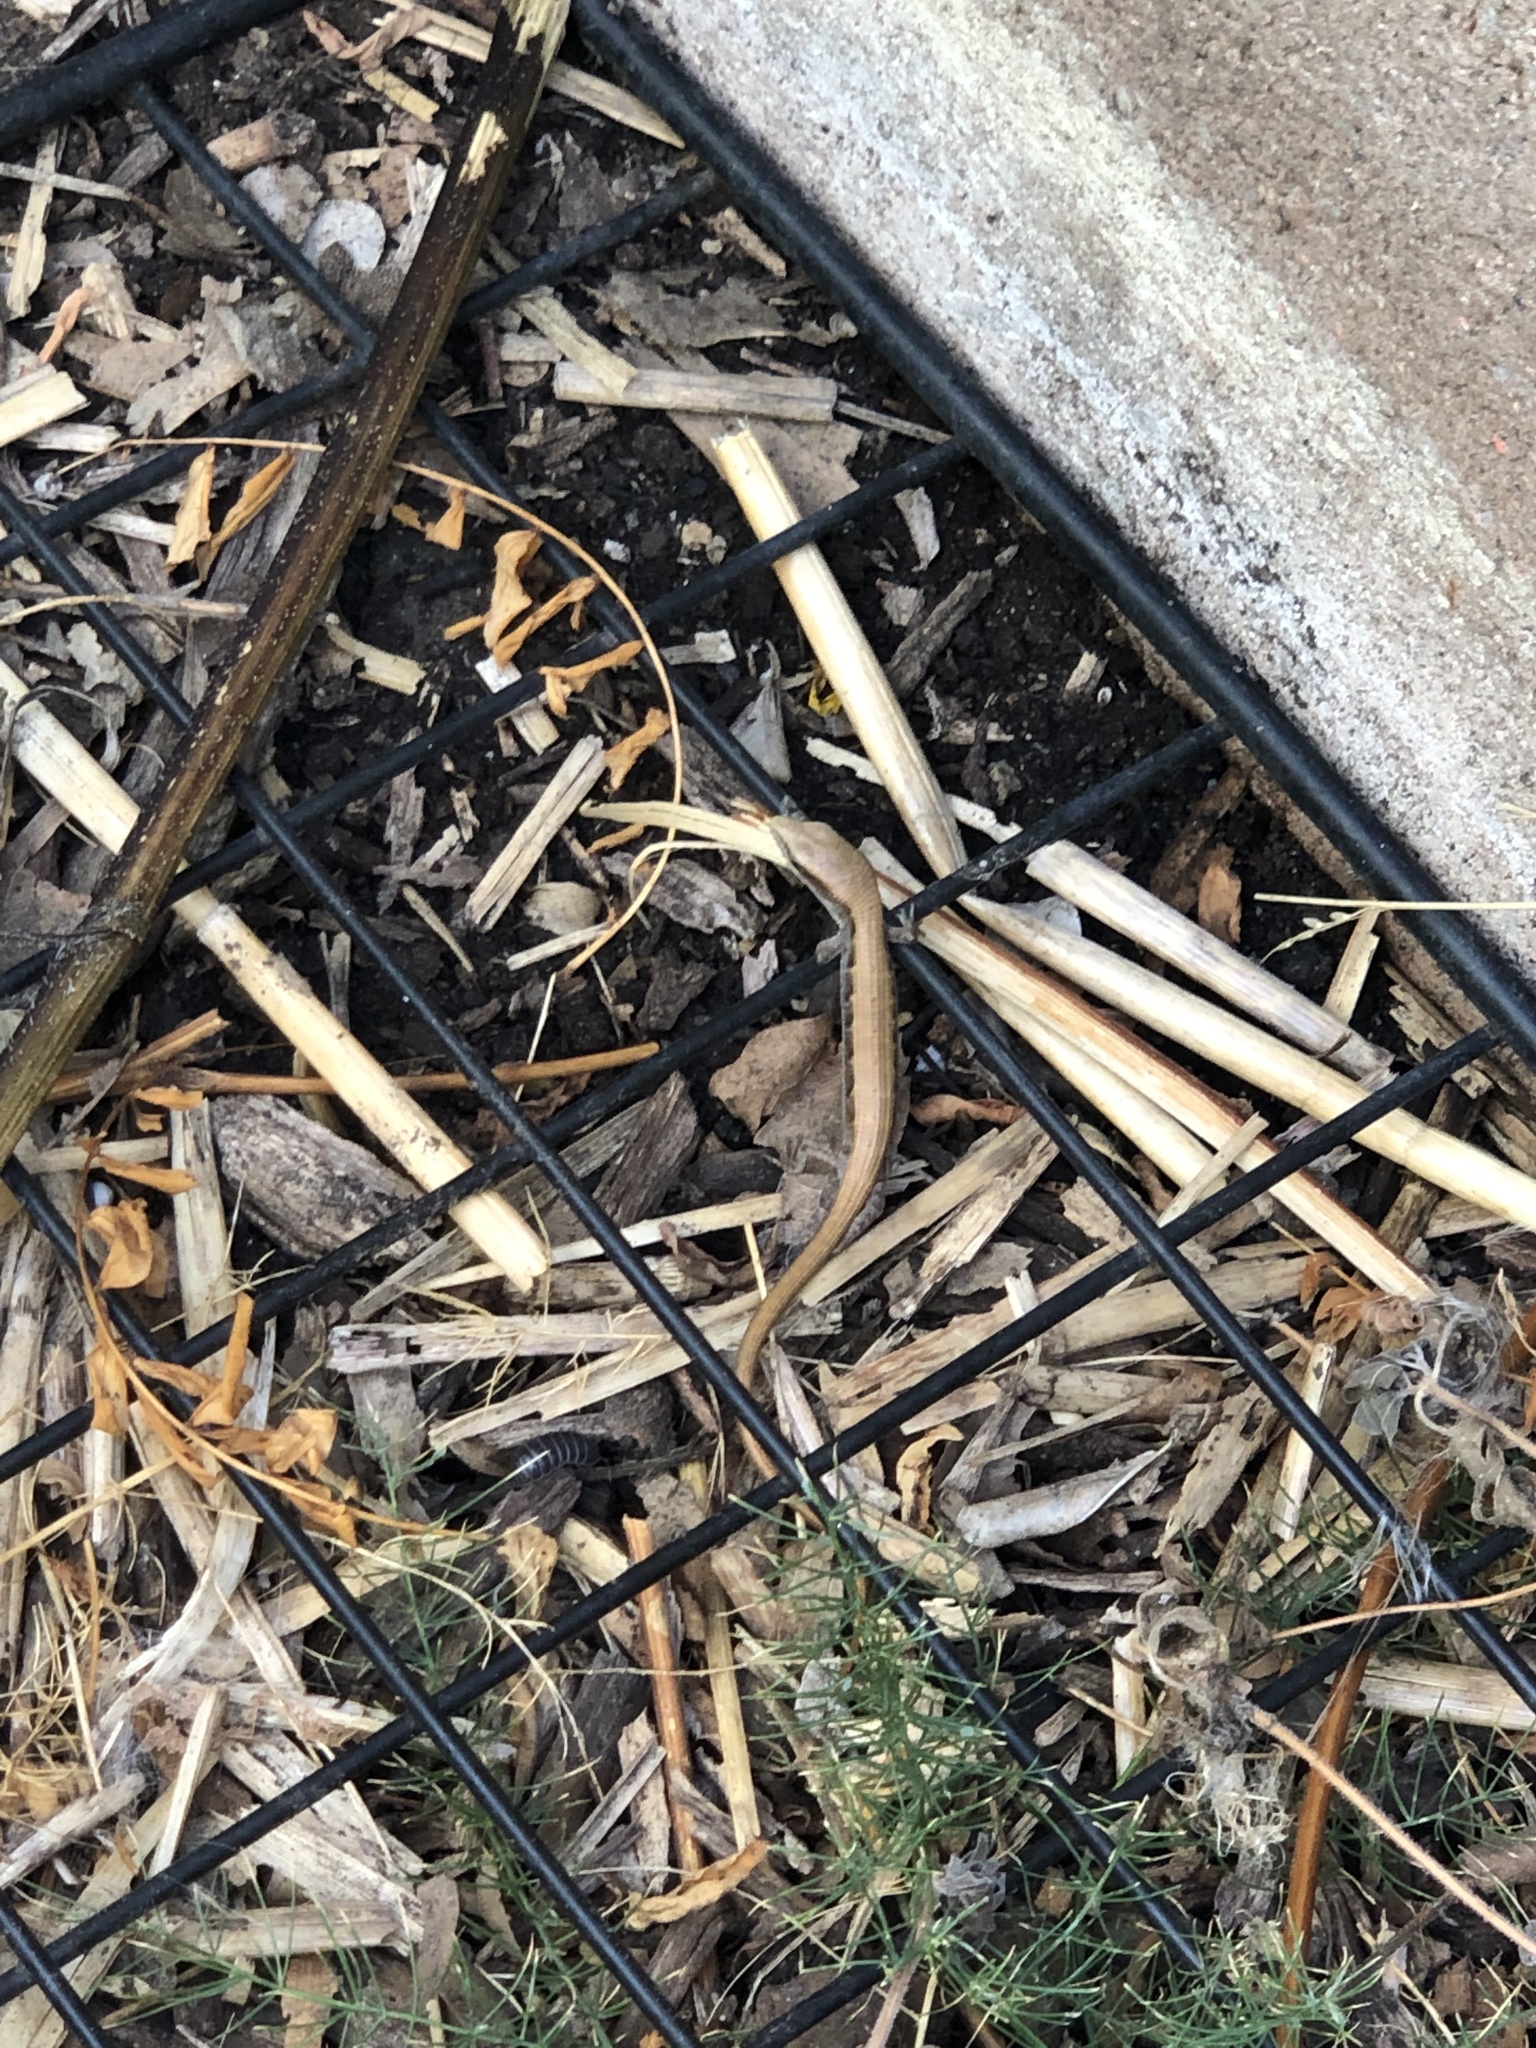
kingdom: Animalia
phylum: Chordata
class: Squamata
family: Anguidae
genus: Elgaria
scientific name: Elgaria multicarinata
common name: Southern alligator lizard
